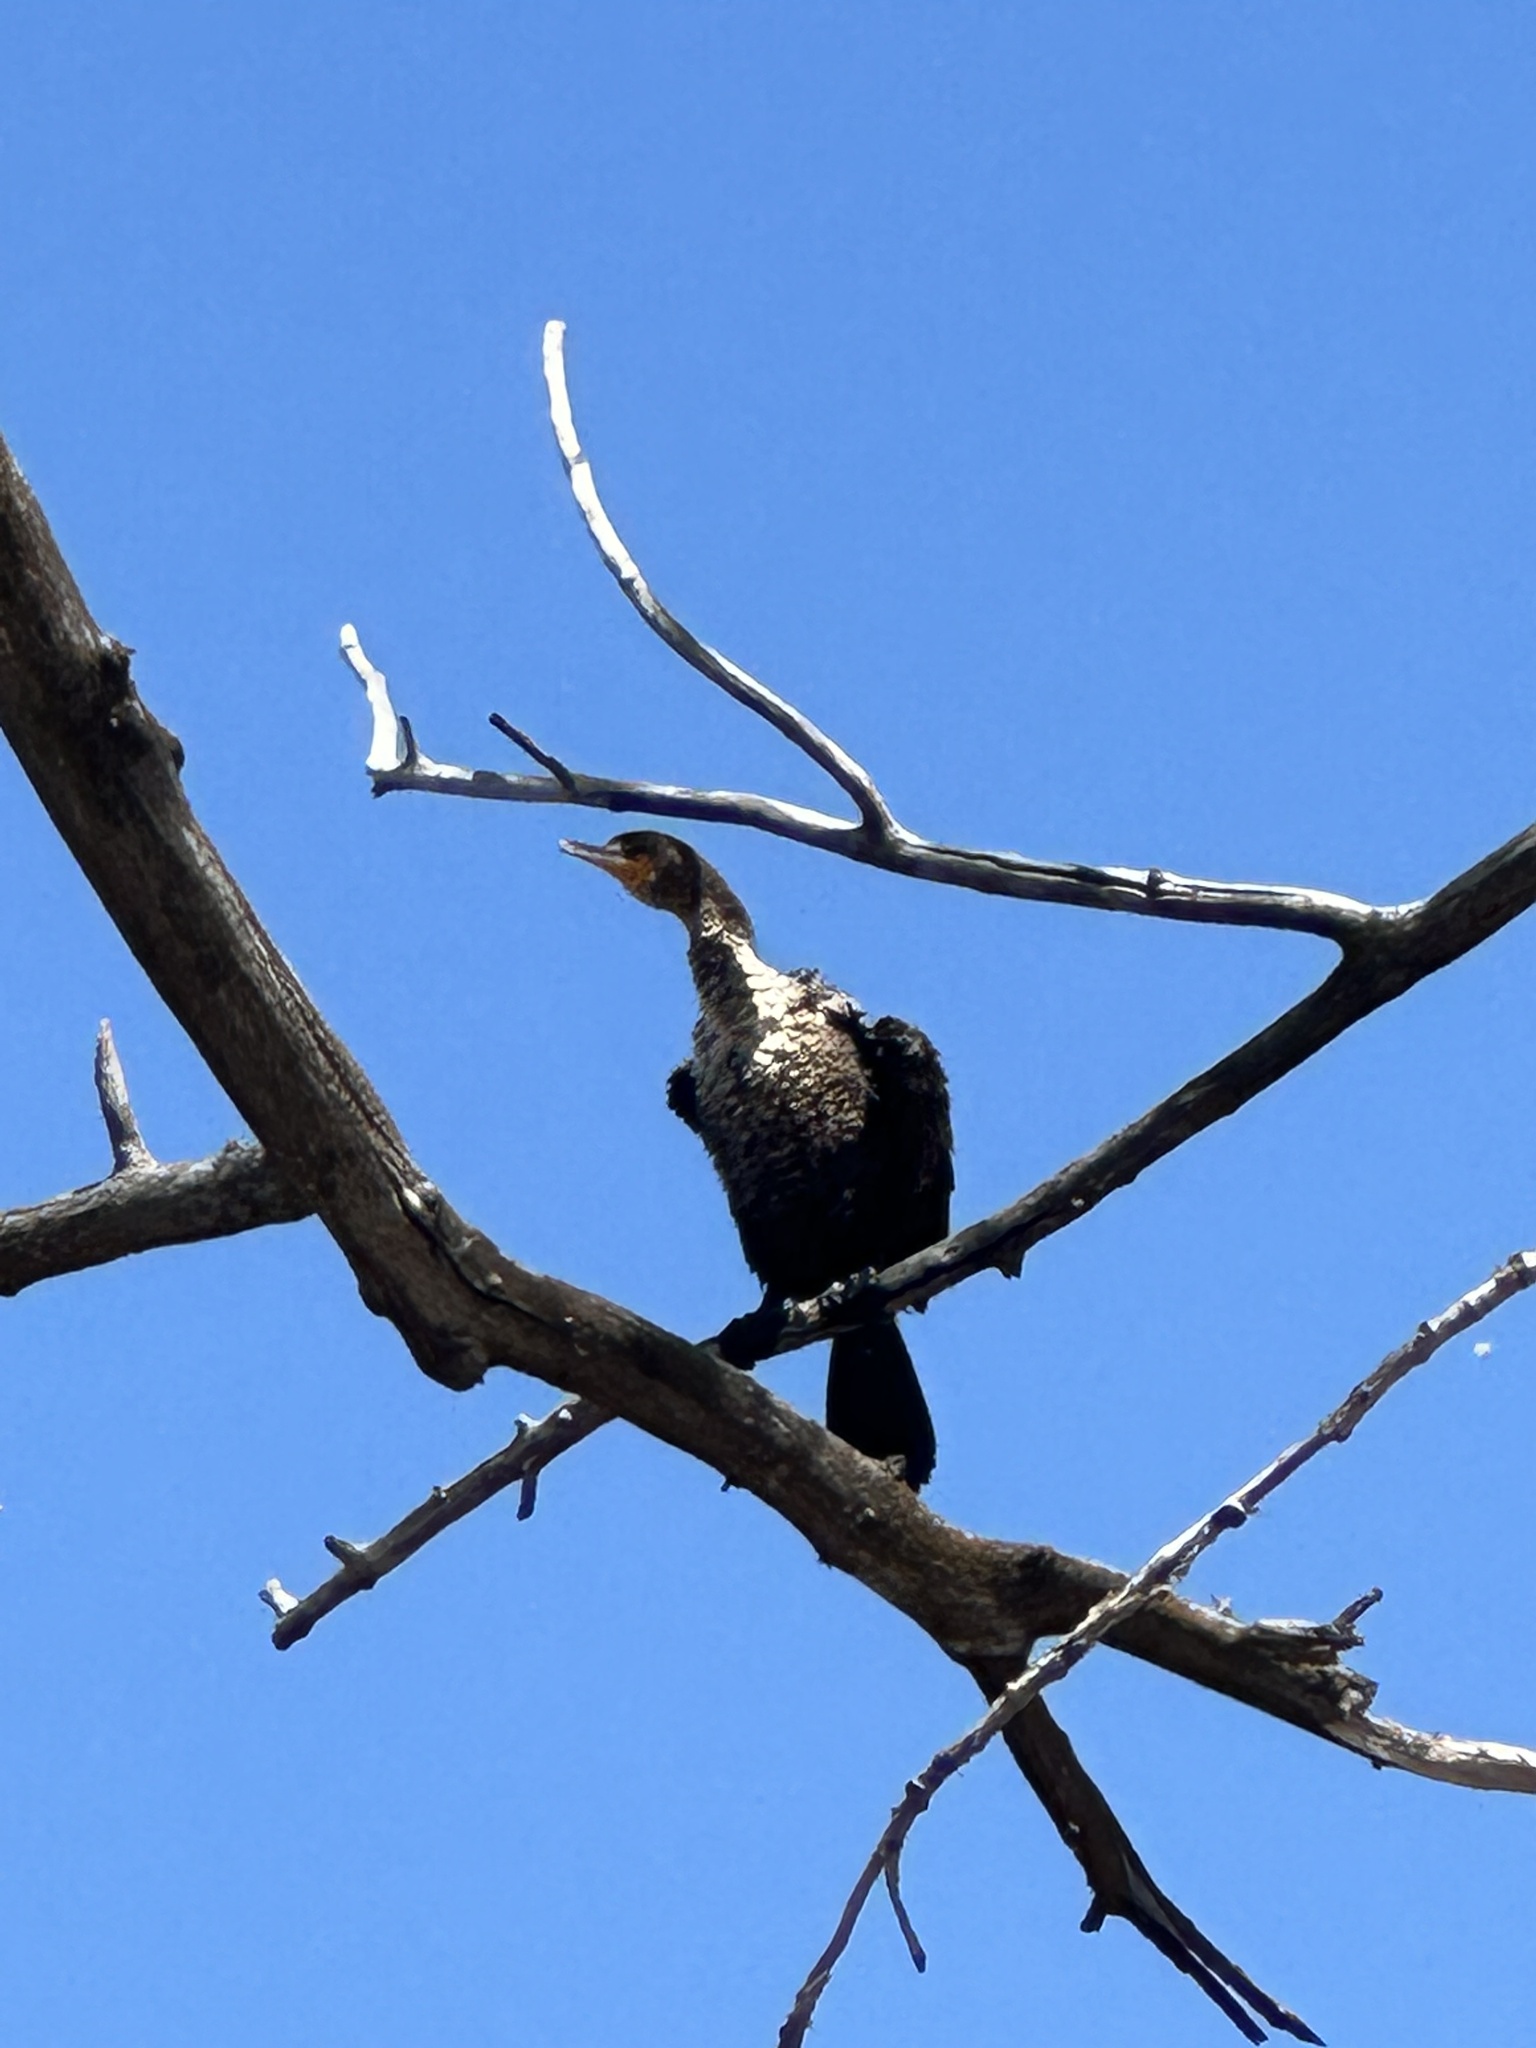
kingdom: Animalia
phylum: Chordata
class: Aves
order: Suliformes
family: Phalacrocoracidae
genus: Phalacrocorax
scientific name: Phalacrocorax auritus
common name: Double-crested cormorant
